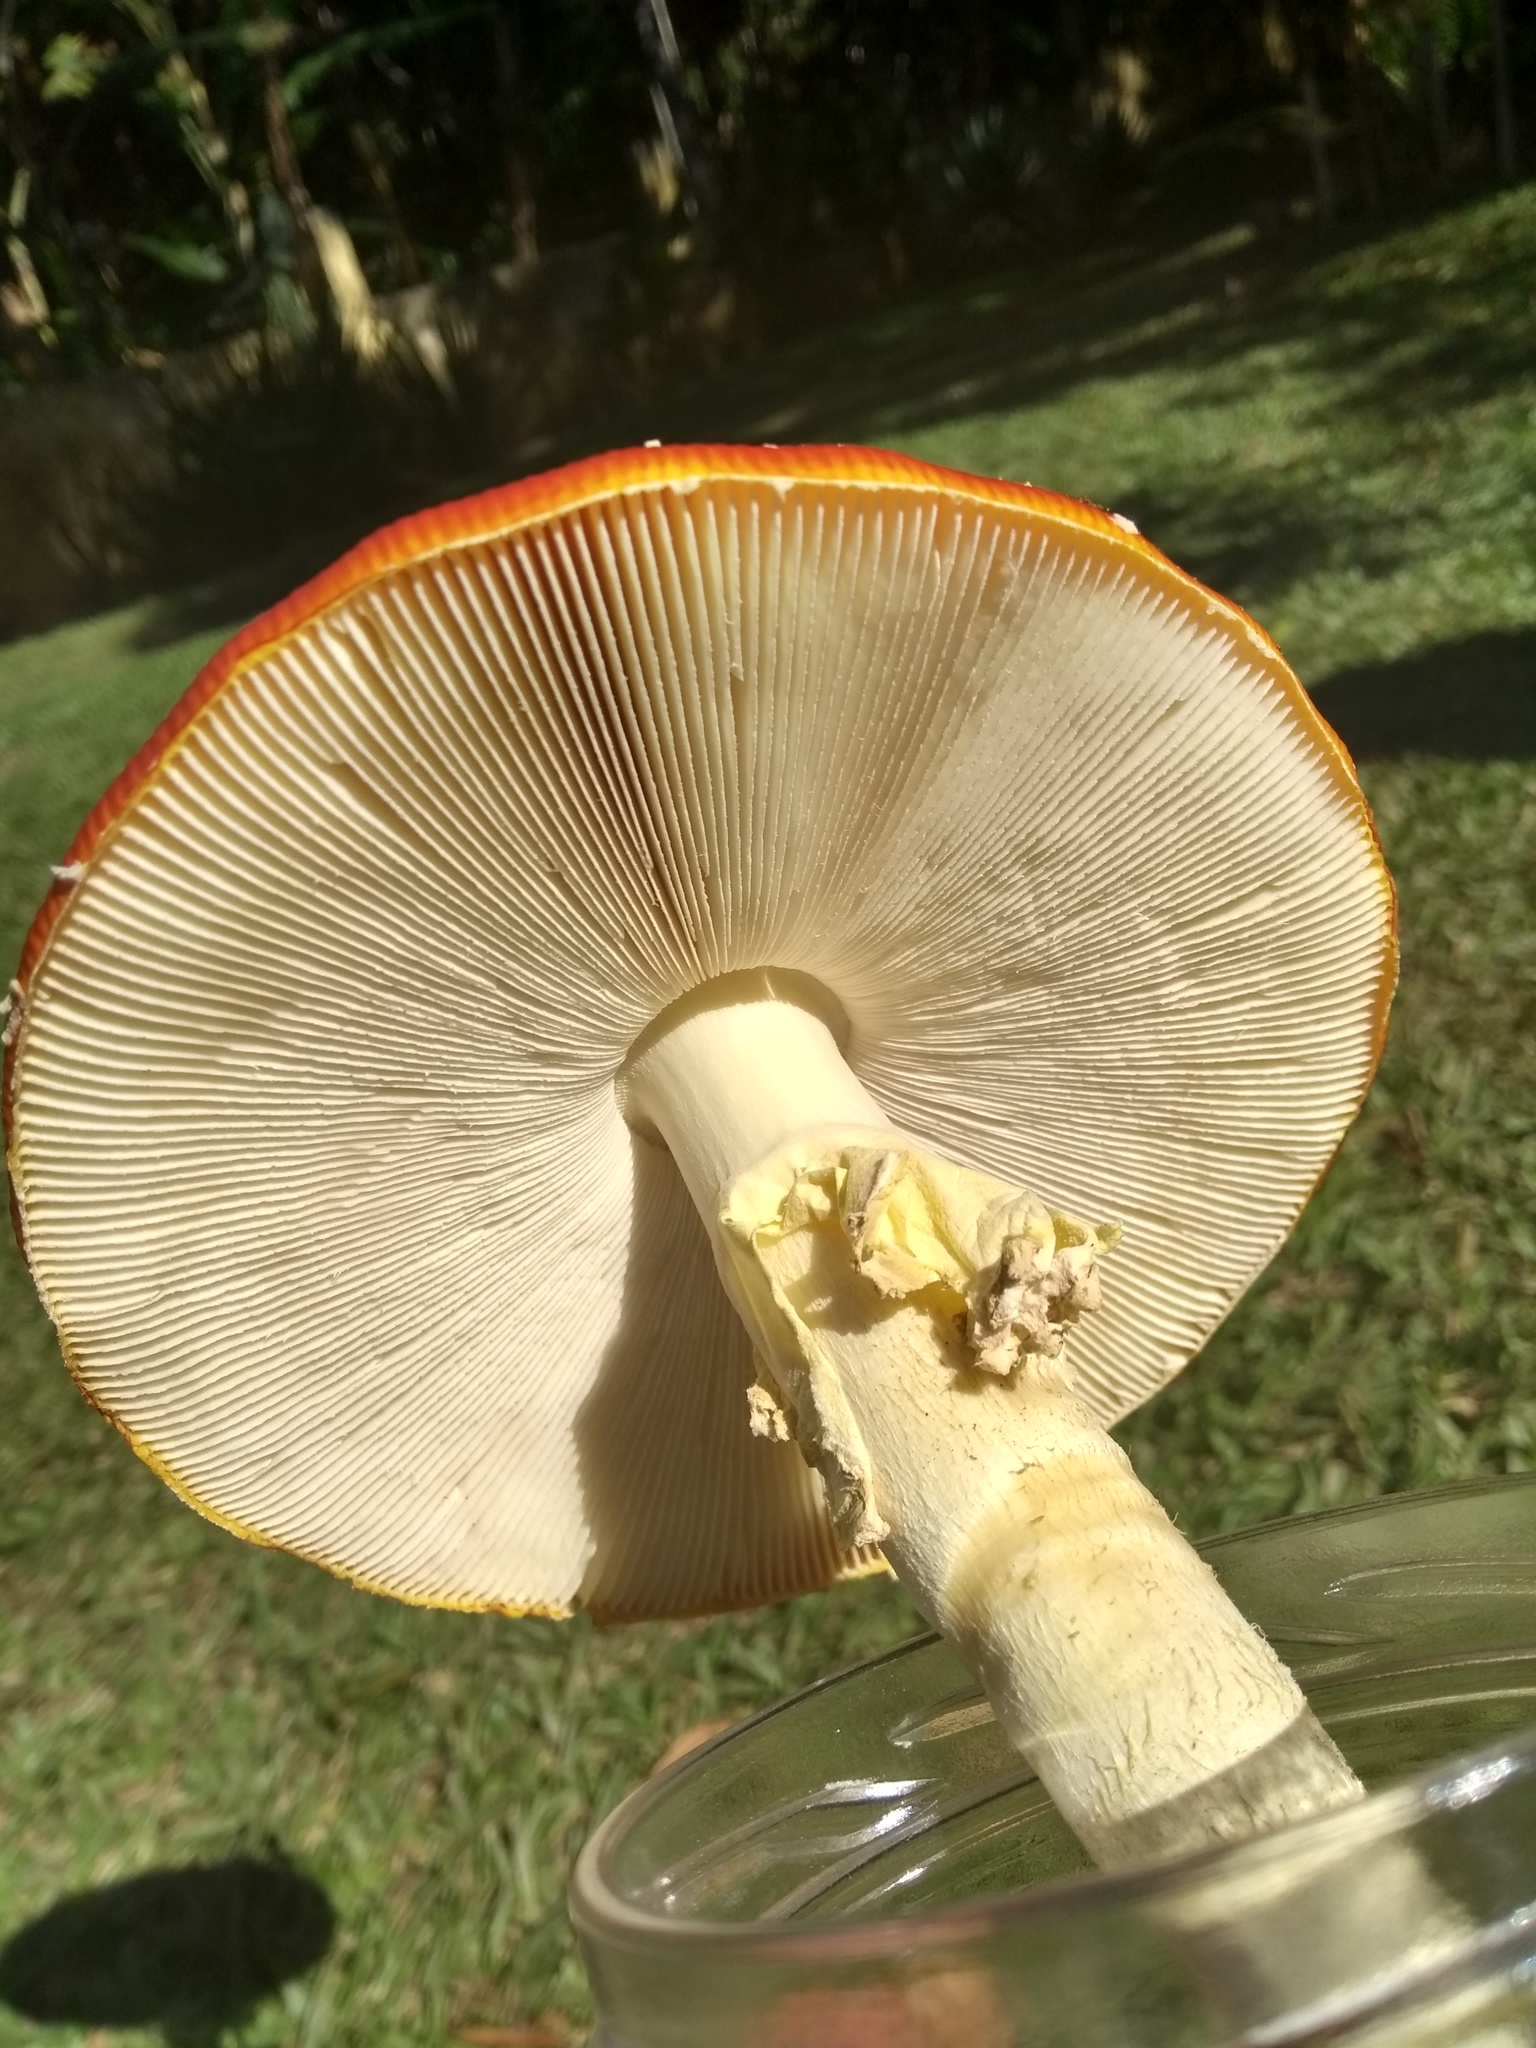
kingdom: Fungi
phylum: Basidiomycota
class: Agaricomycetes
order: Agaricales
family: Amanitaceae
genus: Amanita
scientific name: Amanita muscaria
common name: Fly agaric
